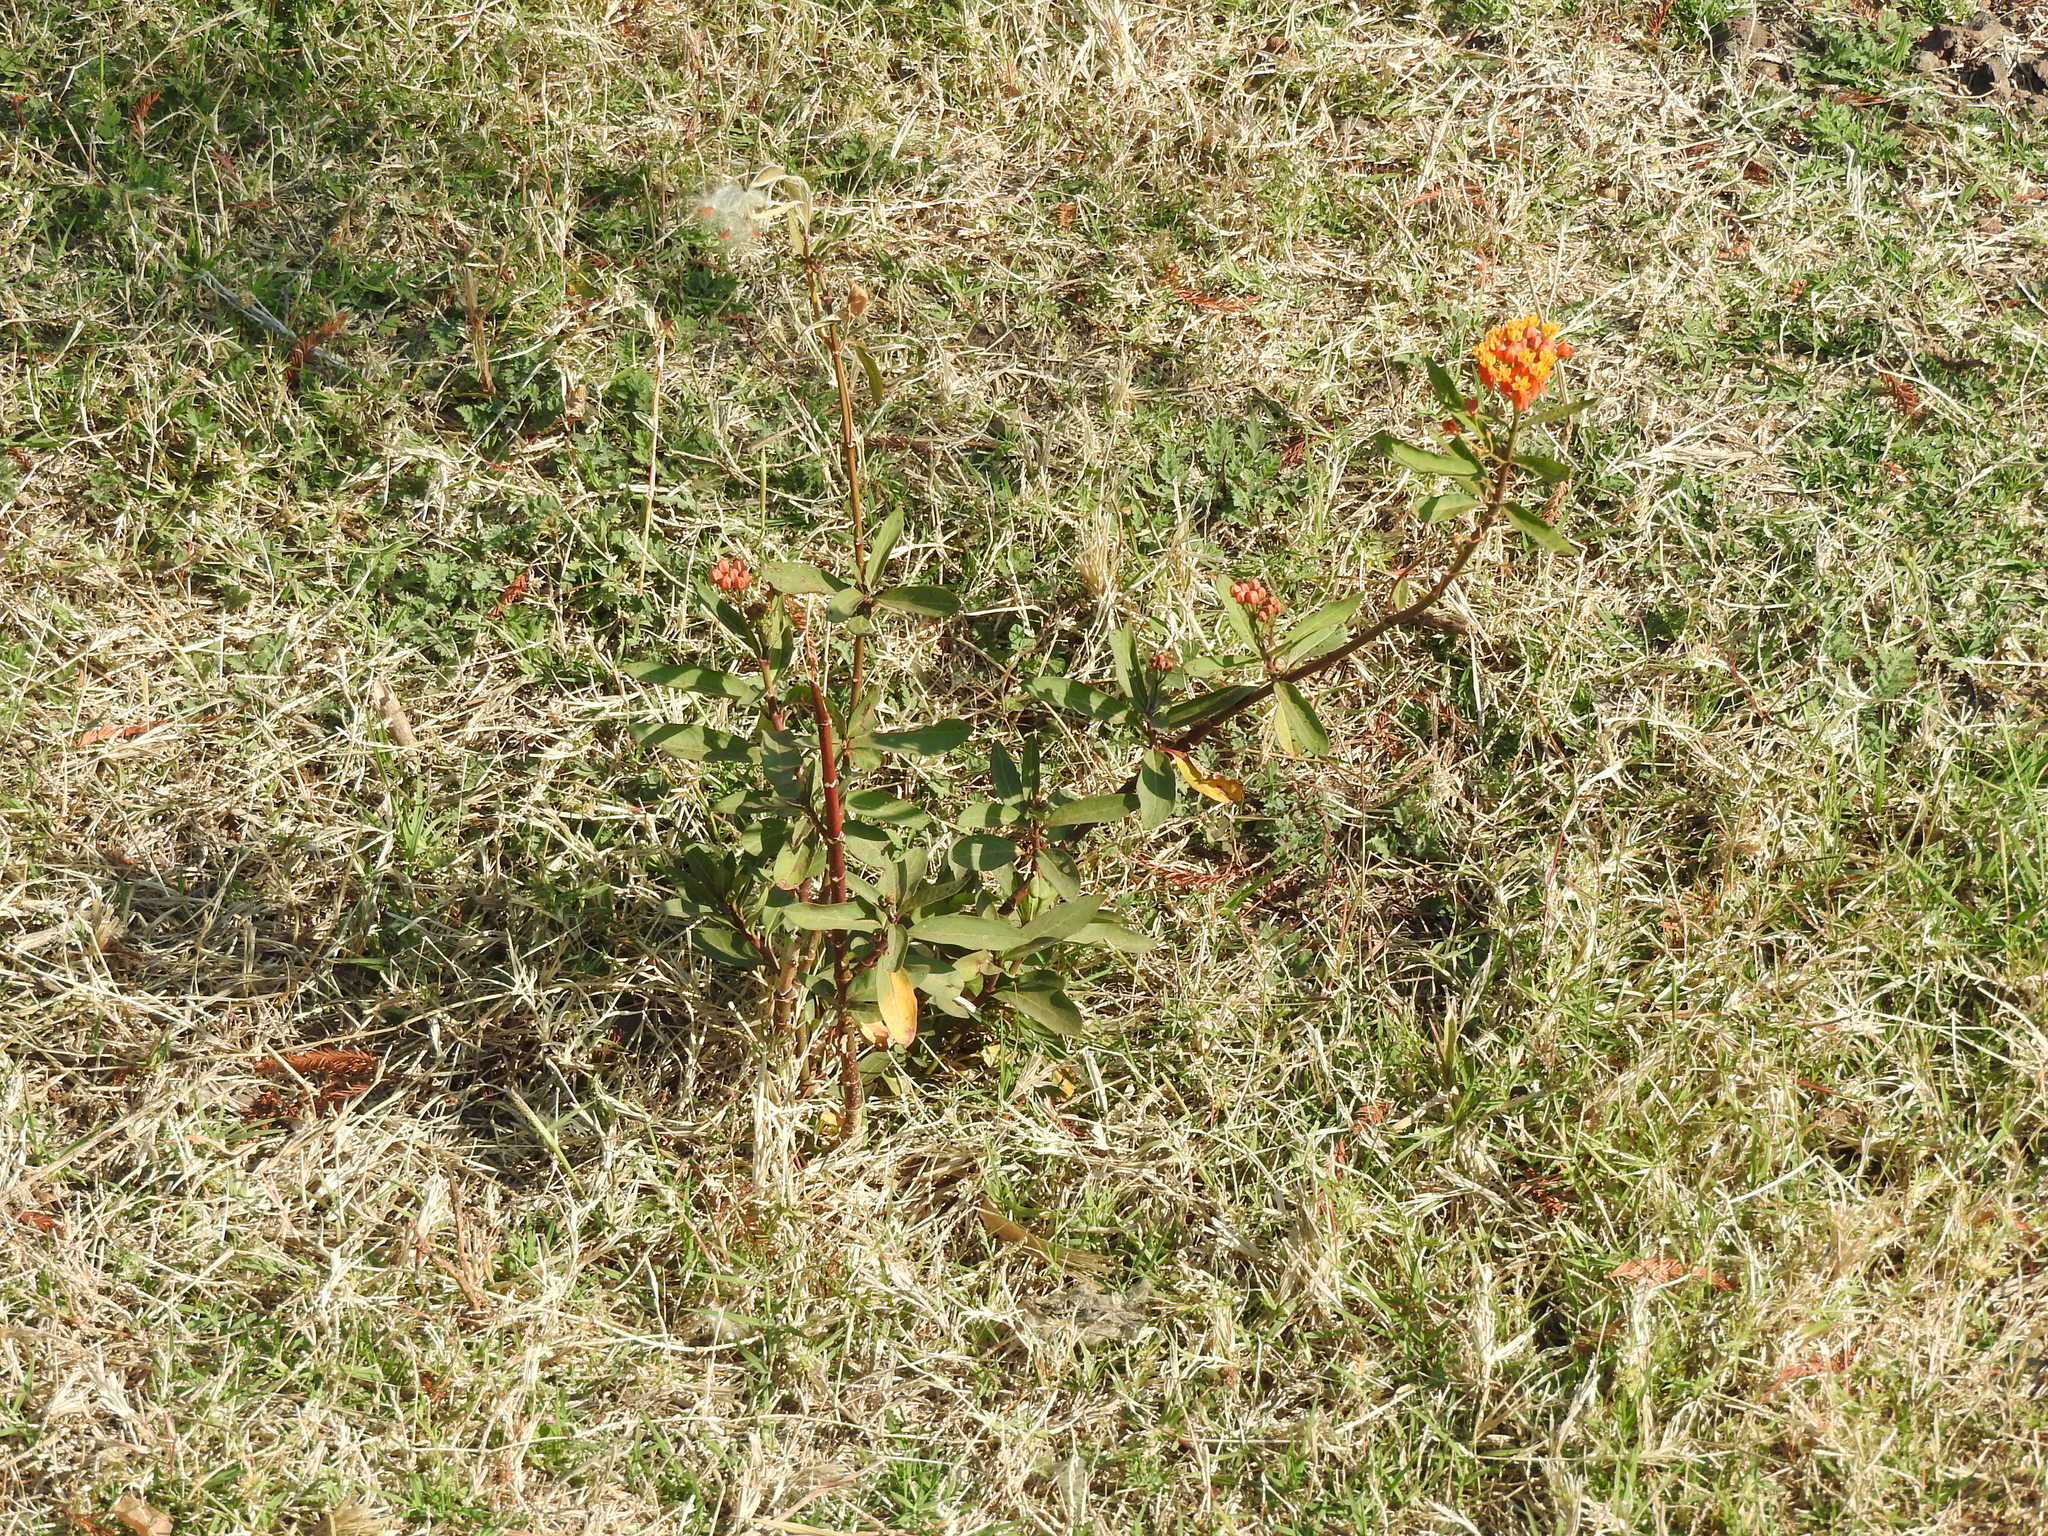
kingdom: Plantae
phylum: Tracheophyta
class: Magnoliopsida
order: Gentianales
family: Apocynaceae
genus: Asclepias
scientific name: Asclepias curassavica
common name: Bloodflower
